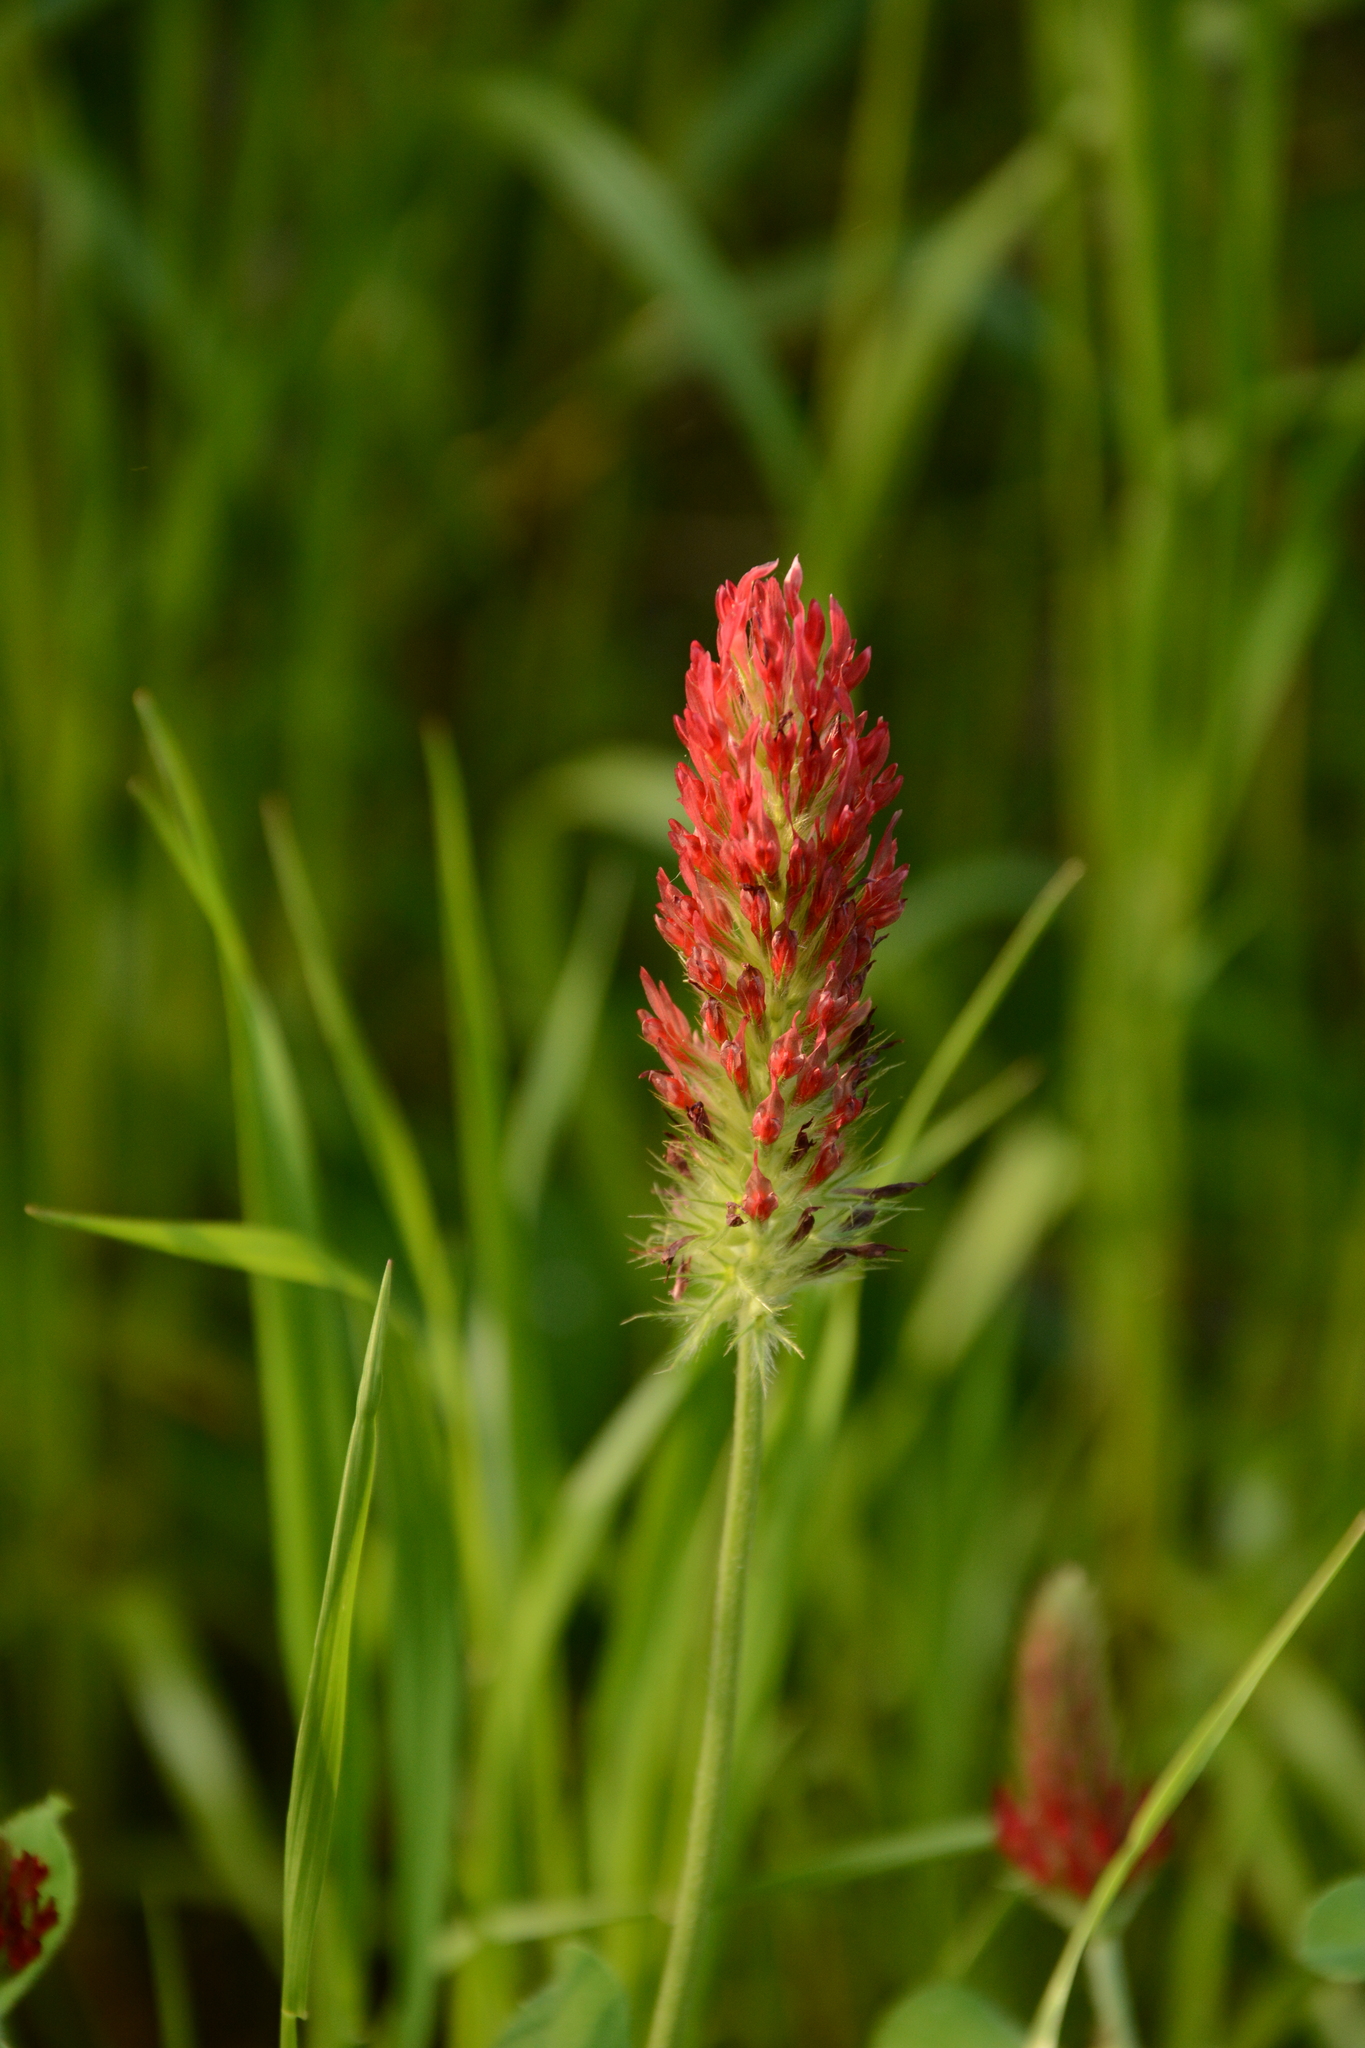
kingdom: Plantae
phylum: Tracheophyta
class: Magnoliopsida
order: Fabales
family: Fabaceae
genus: Trifolium
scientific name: Trifolium incarnatum
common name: Crimson clover
